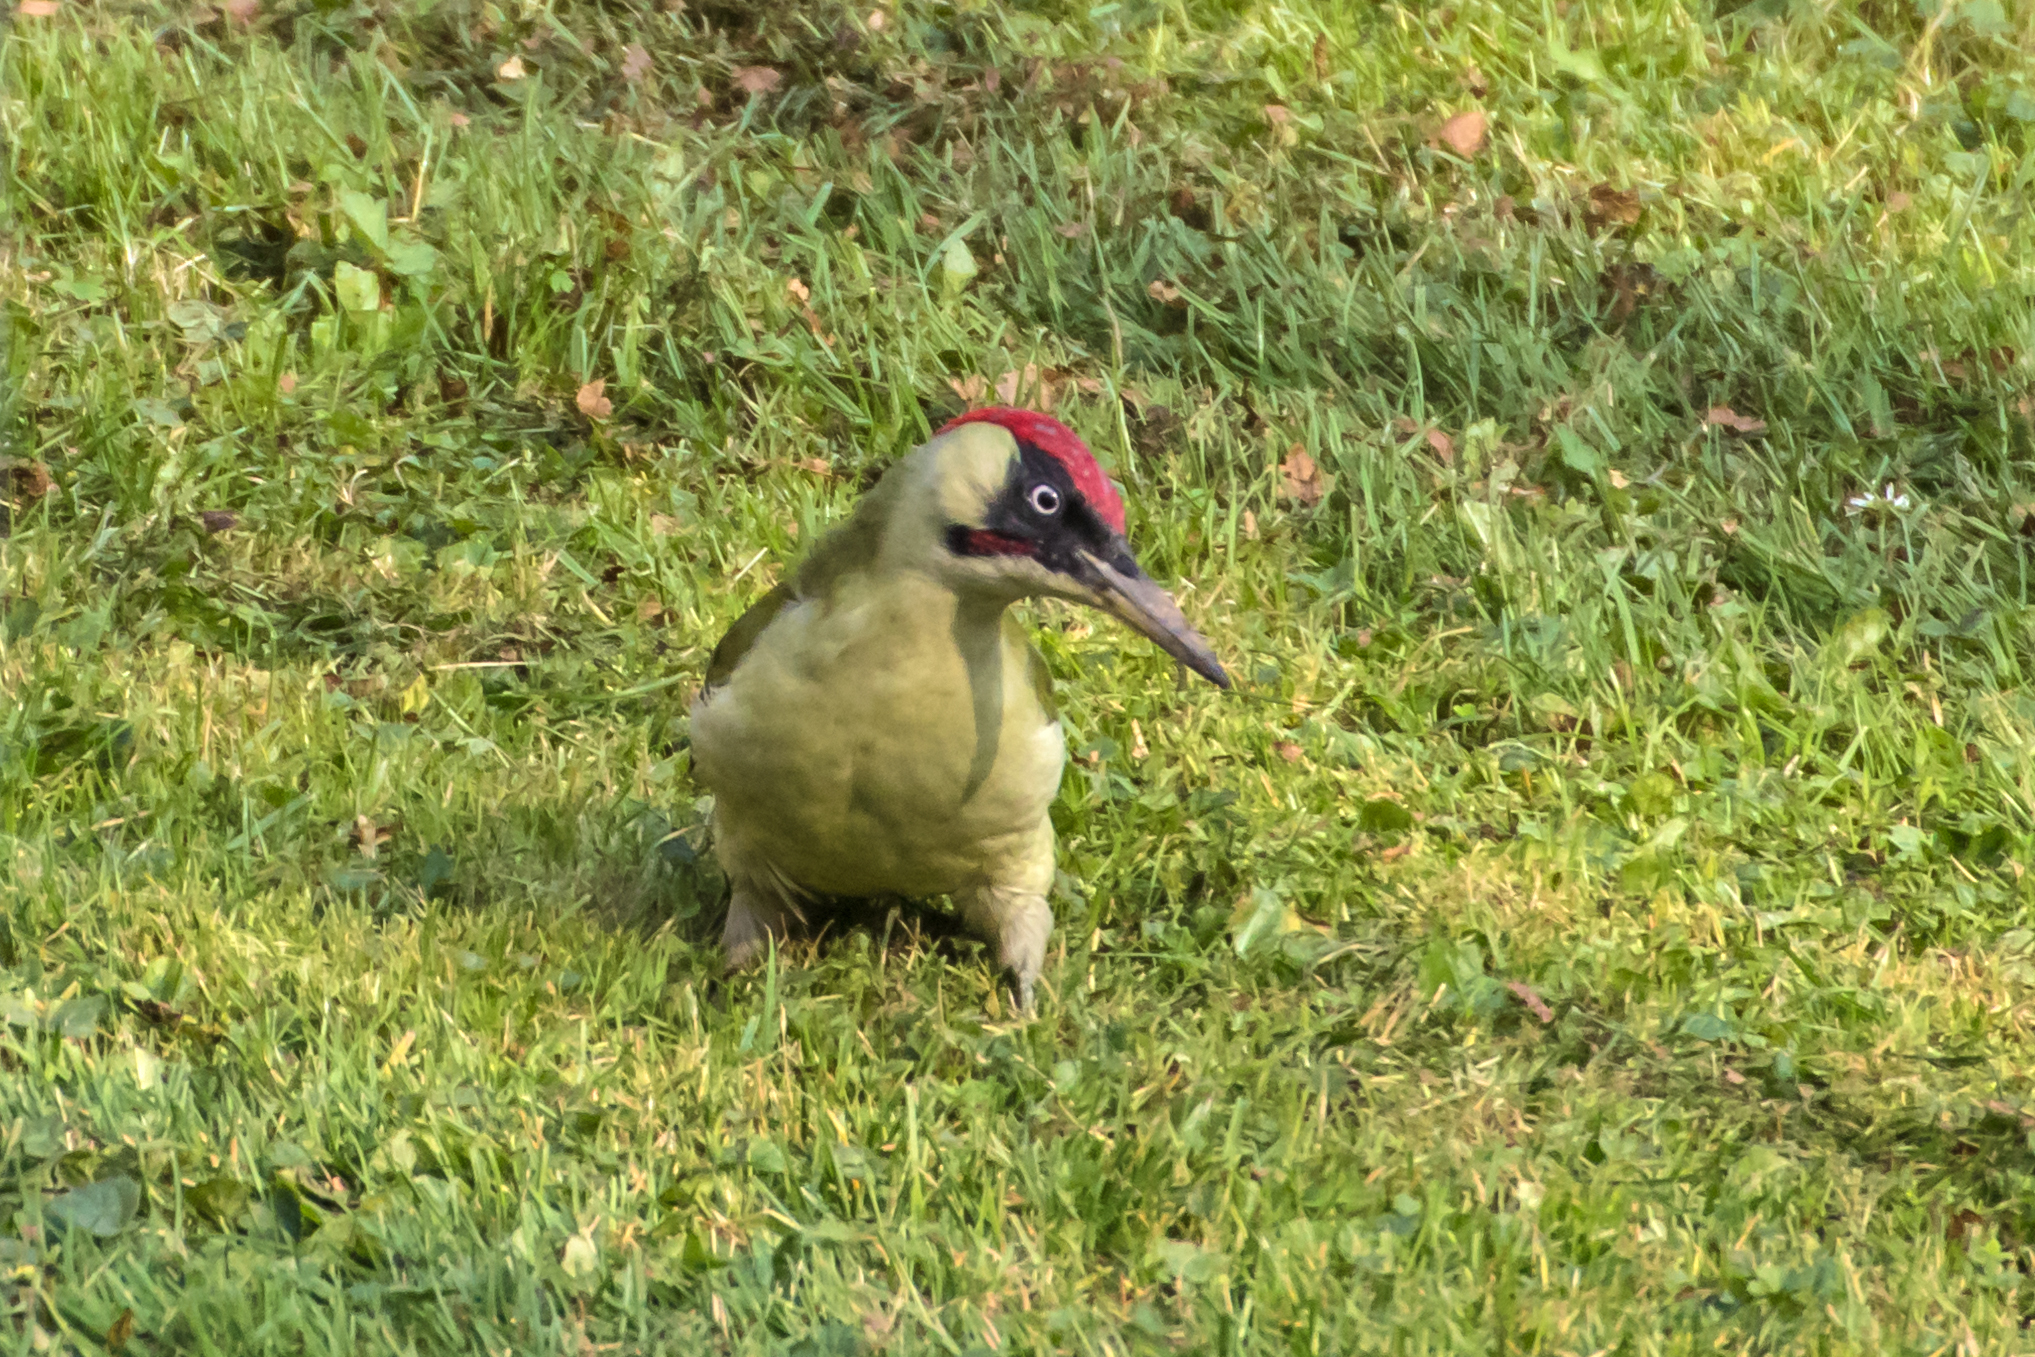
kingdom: Animalia
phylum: Chordata
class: Aves
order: Piciformes
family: Picidae
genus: Picus
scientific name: Picus viridis
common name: European green woodpecker
